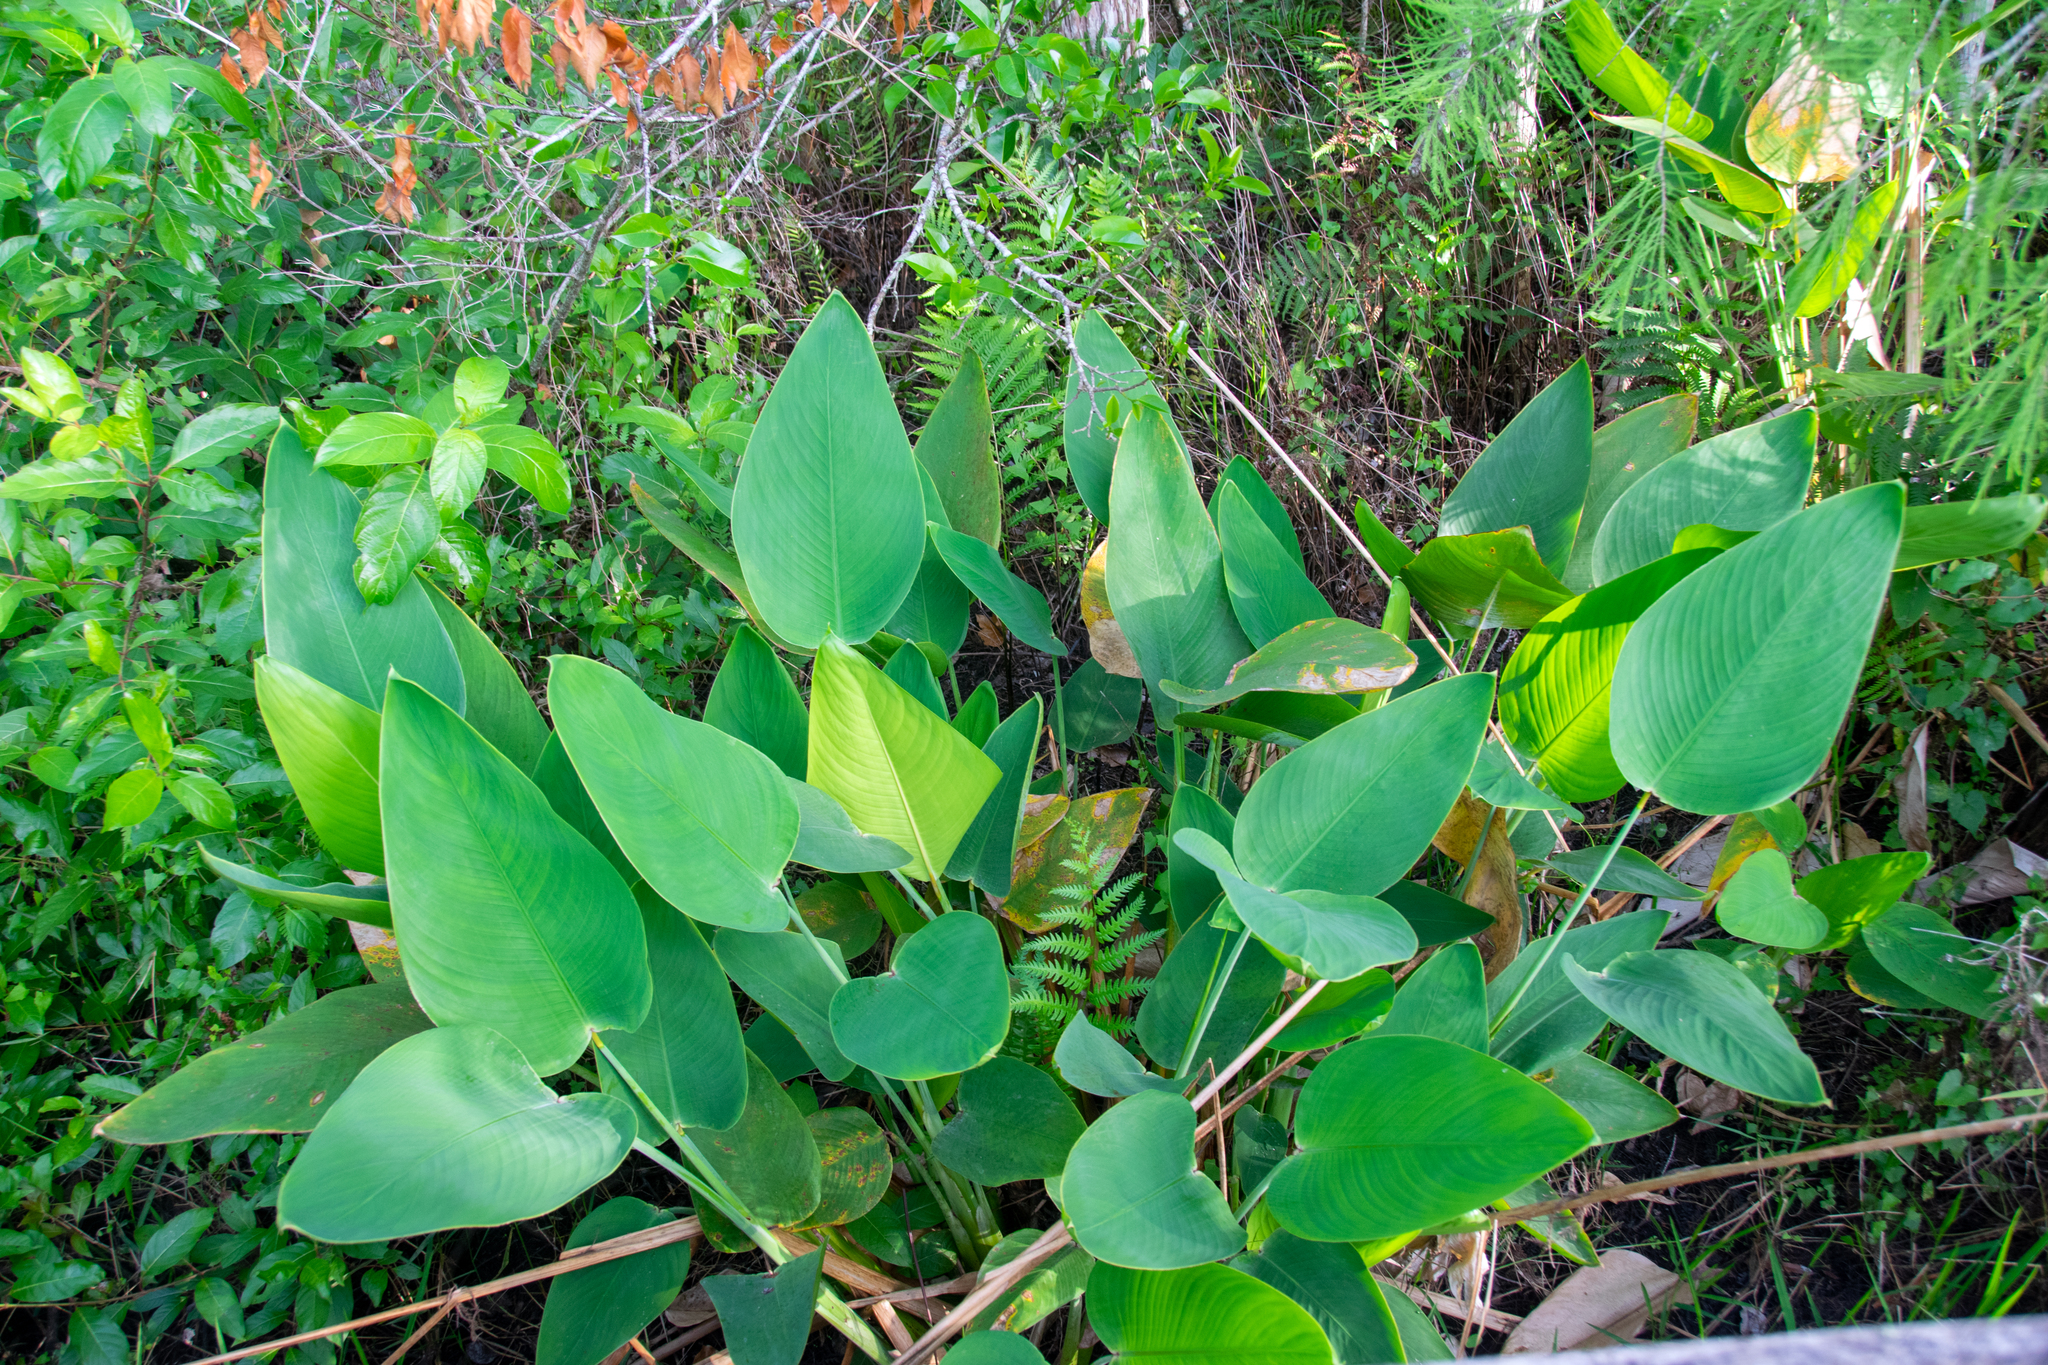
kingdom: Plantae
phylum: Tracheophyta
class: Liliopsida
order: Zingiberales
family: Marantaceae
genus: Thalia
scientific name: Thalia geniculata
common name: Arrowroot
